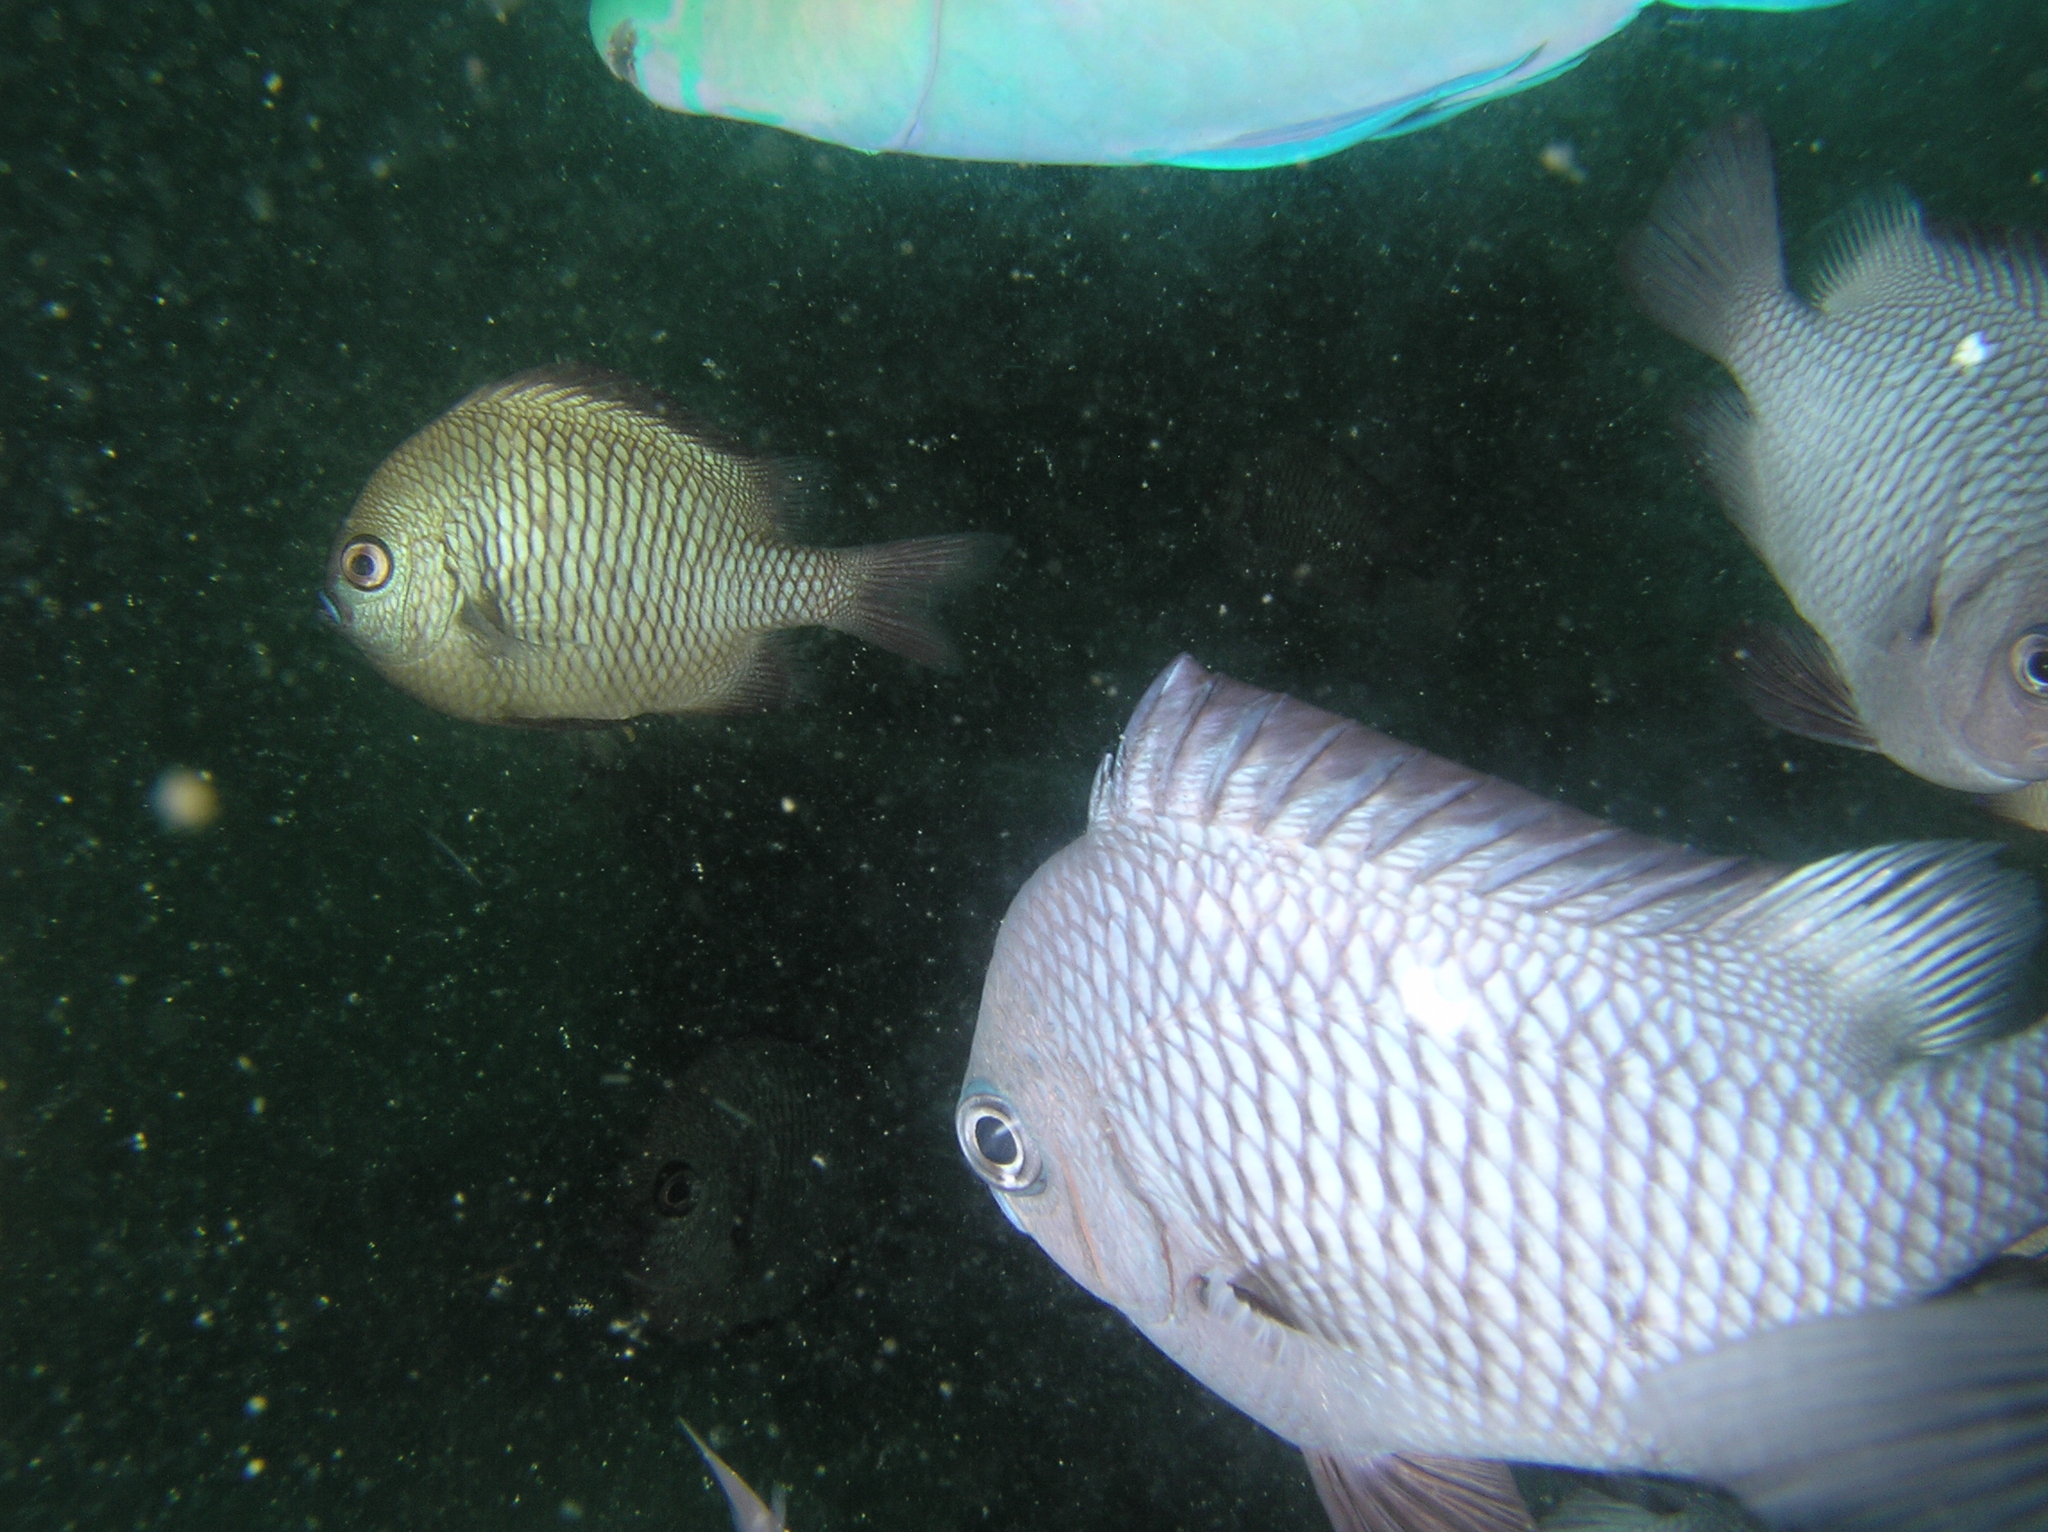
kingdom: Animalia
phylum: Chordata
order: Perciformes
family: Pomacentridae
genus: Dascyllus
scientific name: Dascyllus trimaculatus
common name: Threespot dascyllus
